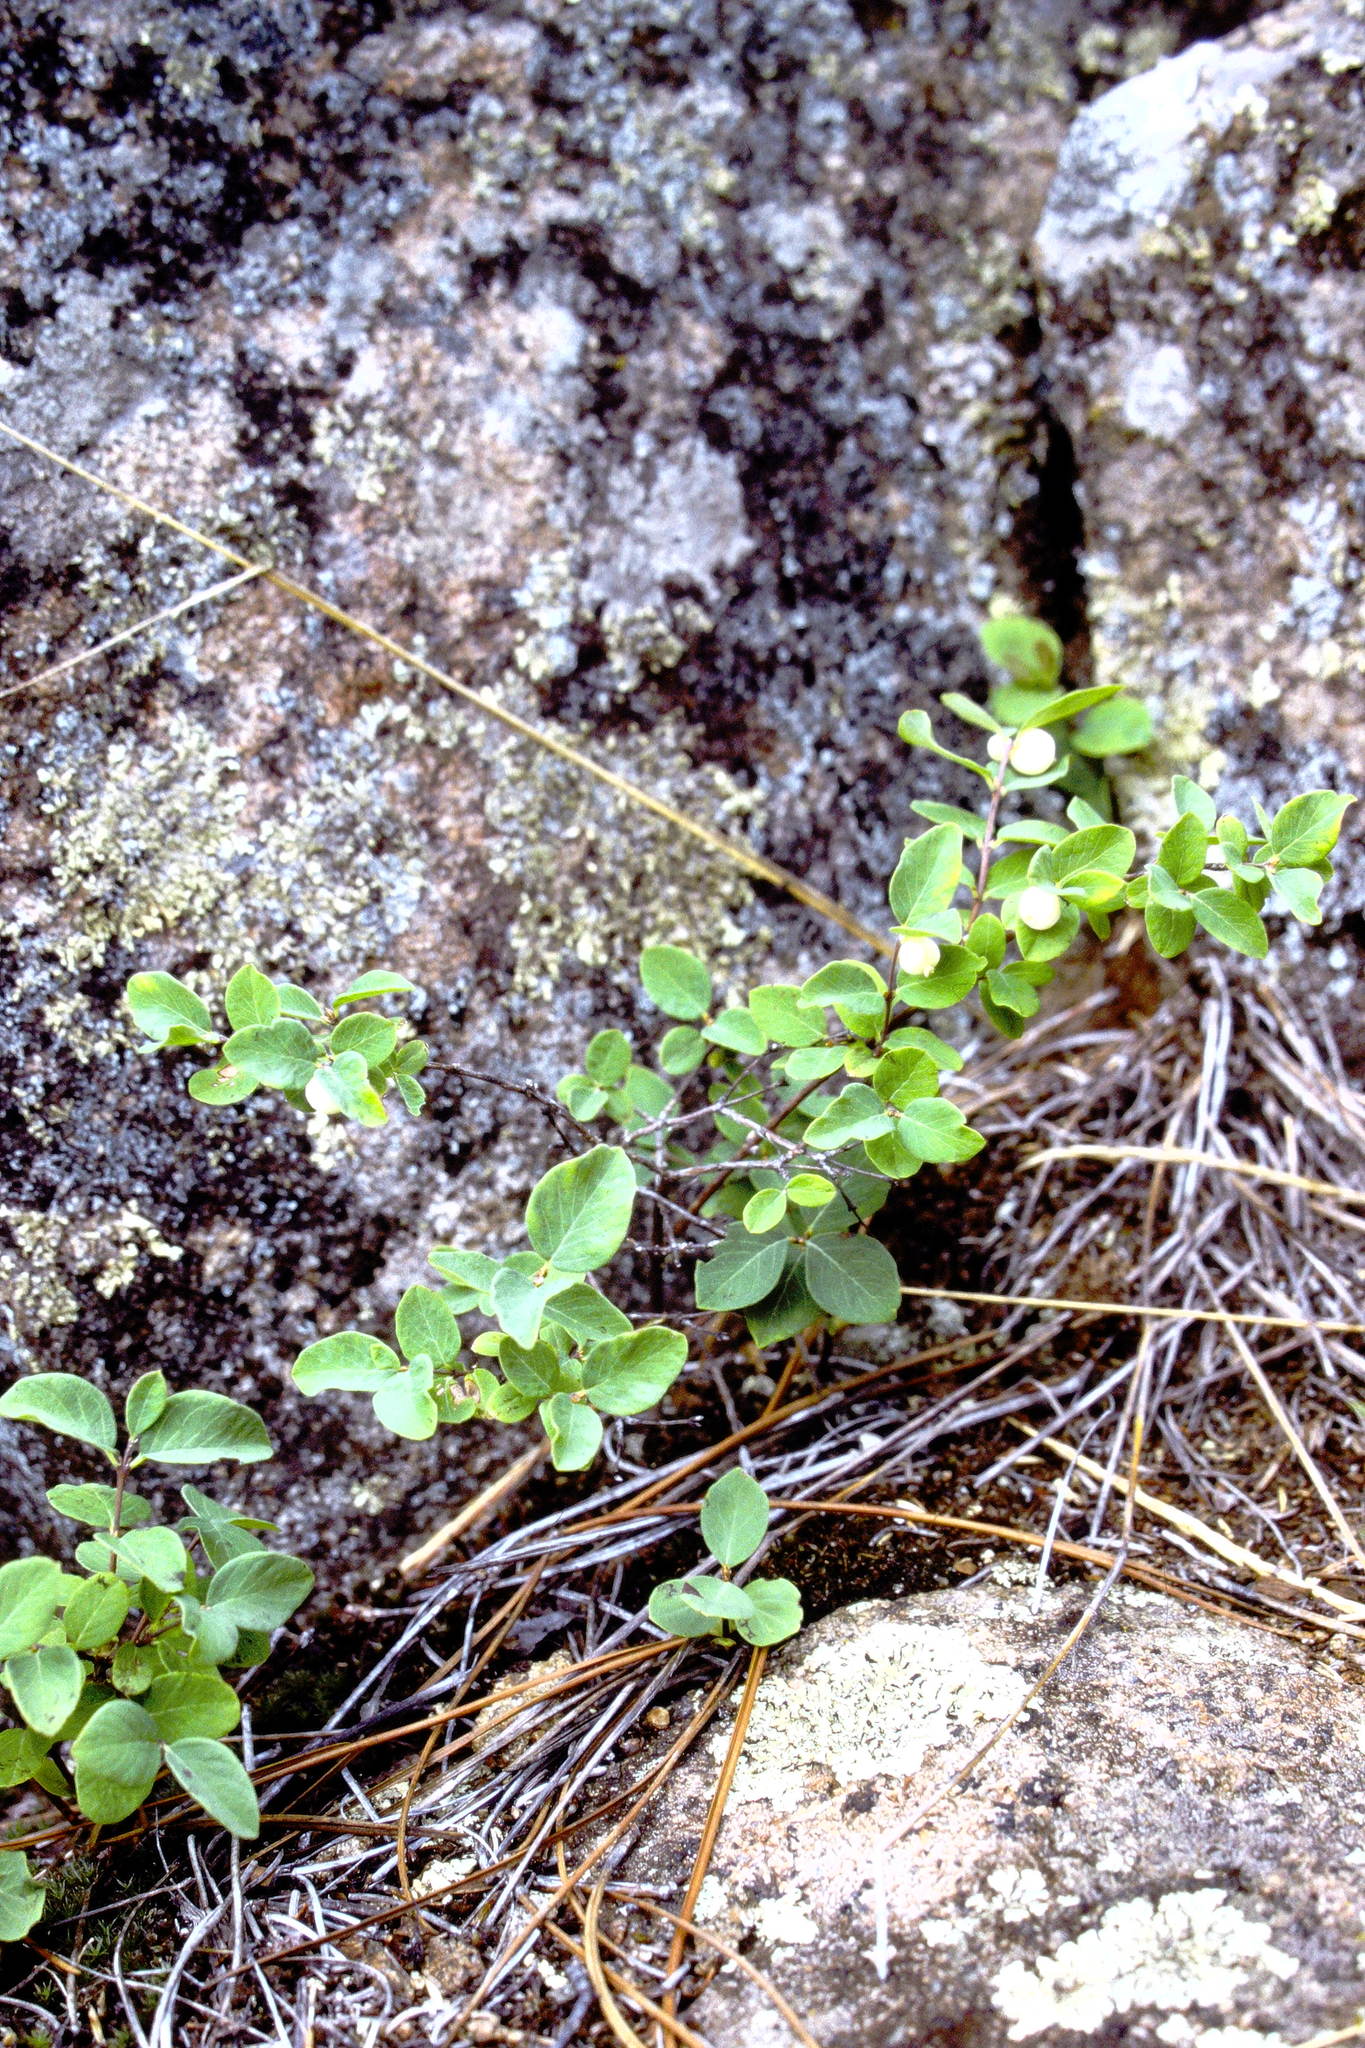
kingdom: Plantae
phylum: Tracheophyta
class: Magnoliopsida
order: Dipsacales
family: Caprifoliaceae
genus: Symphoricarpos
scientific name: Symphoricarpos albus
